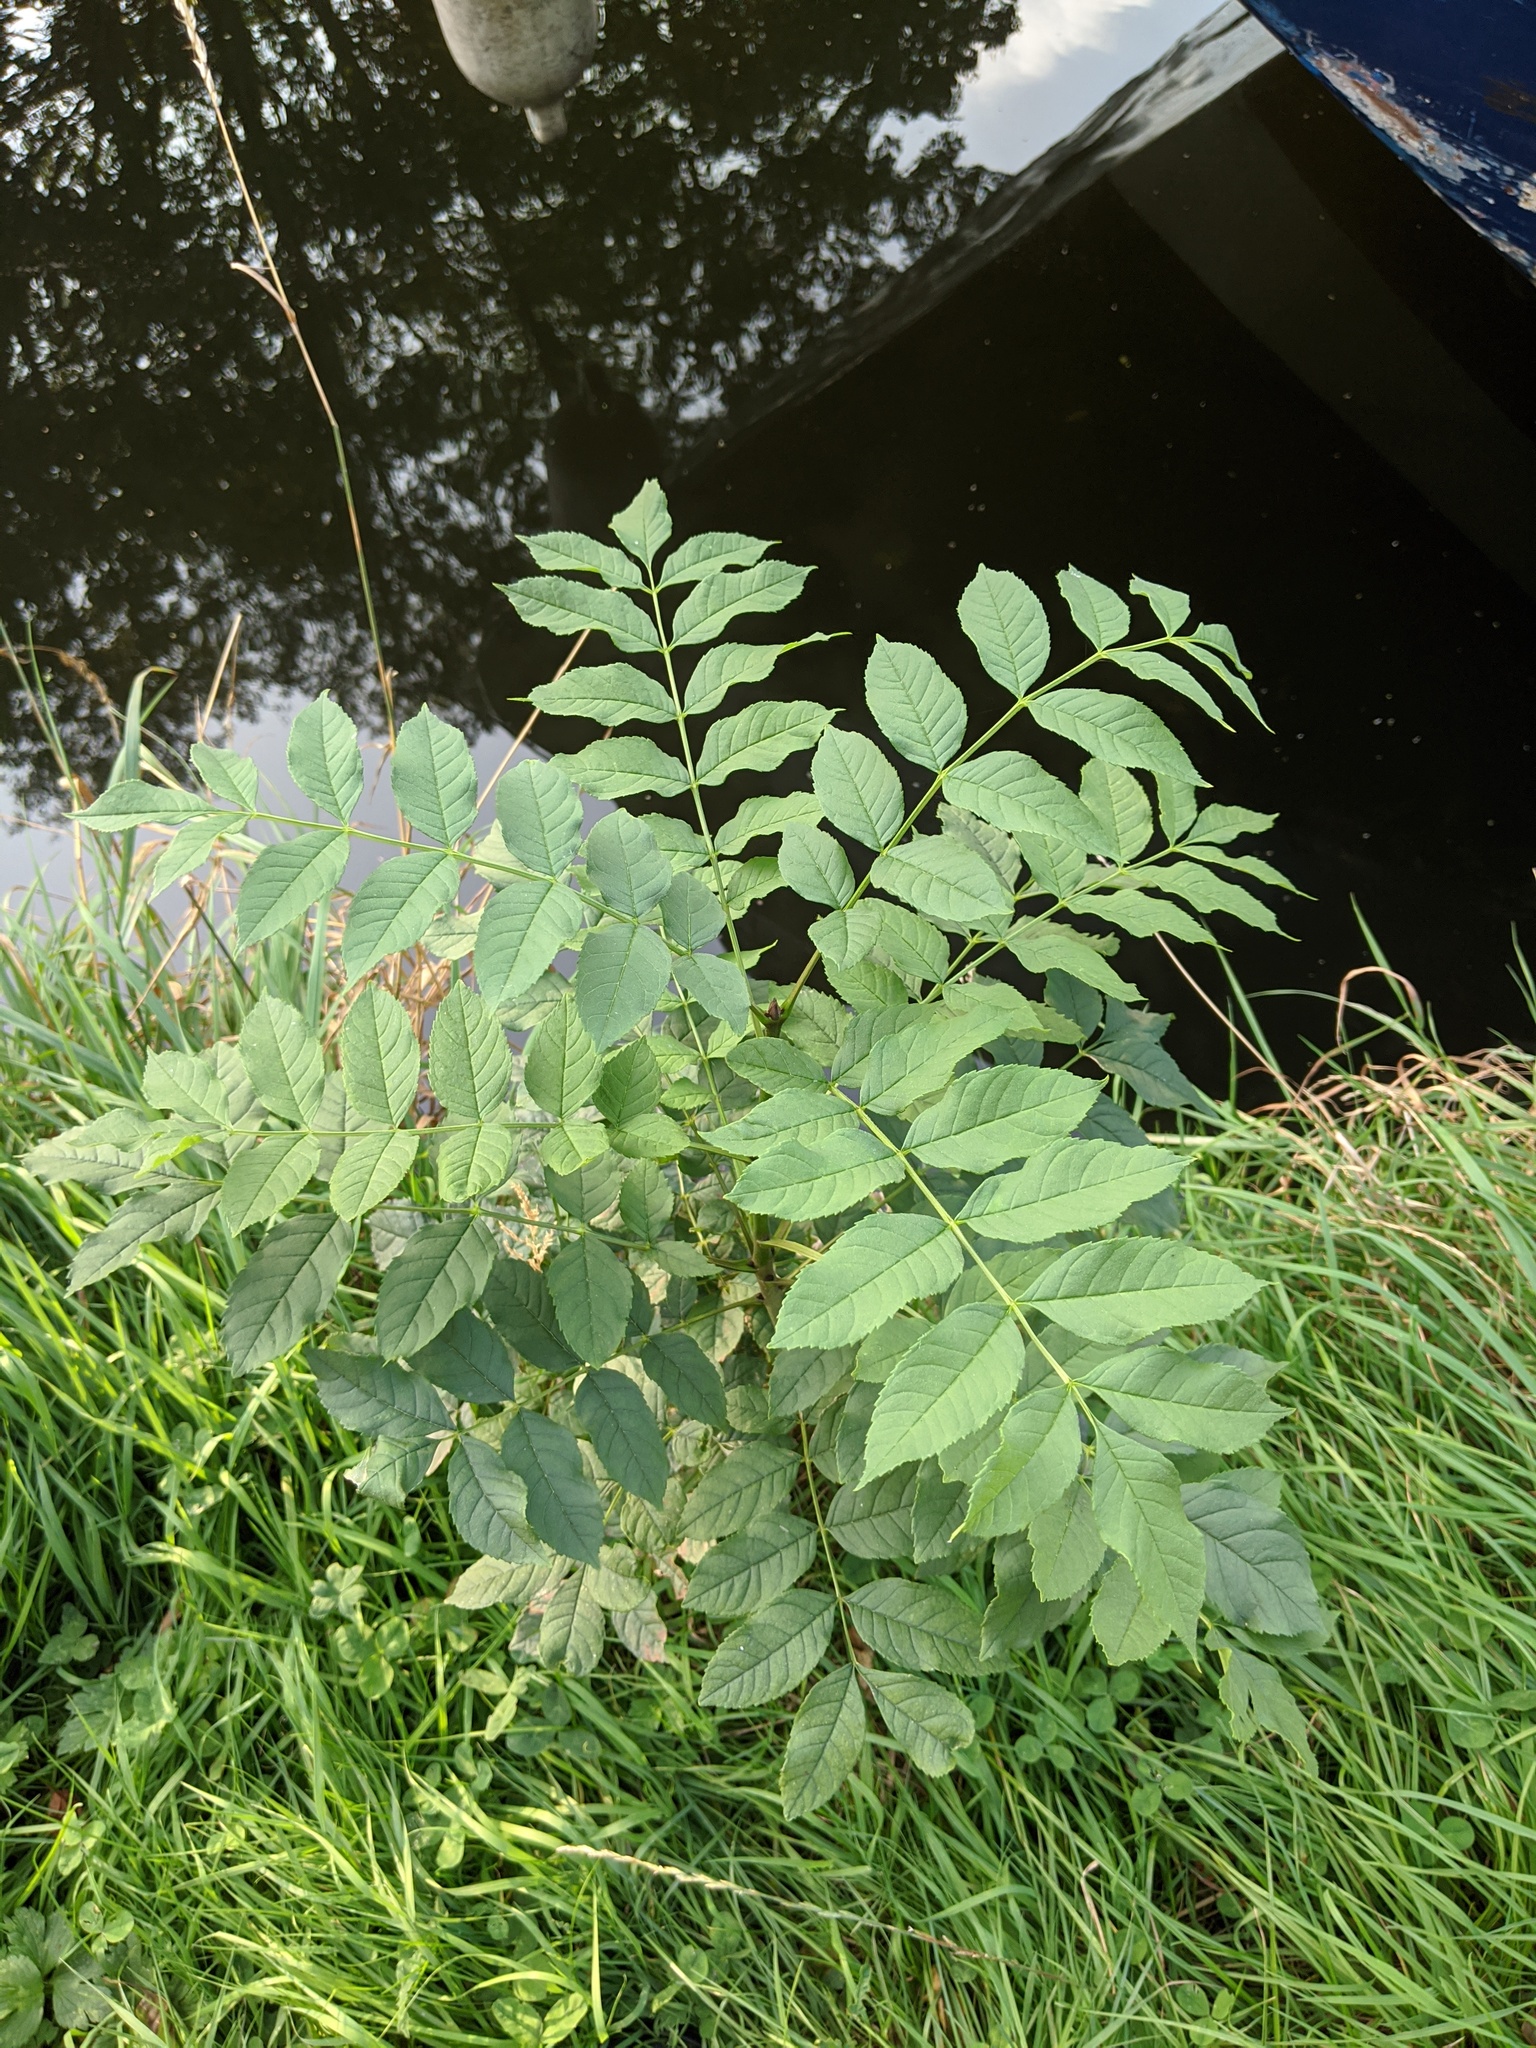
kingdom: Plantae
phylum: Tracheophyta
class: Magnoliopsida
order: Lamiales
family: Oleaceae
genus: Fraxinus
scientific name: Fraxinus excelsior
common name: European ash
